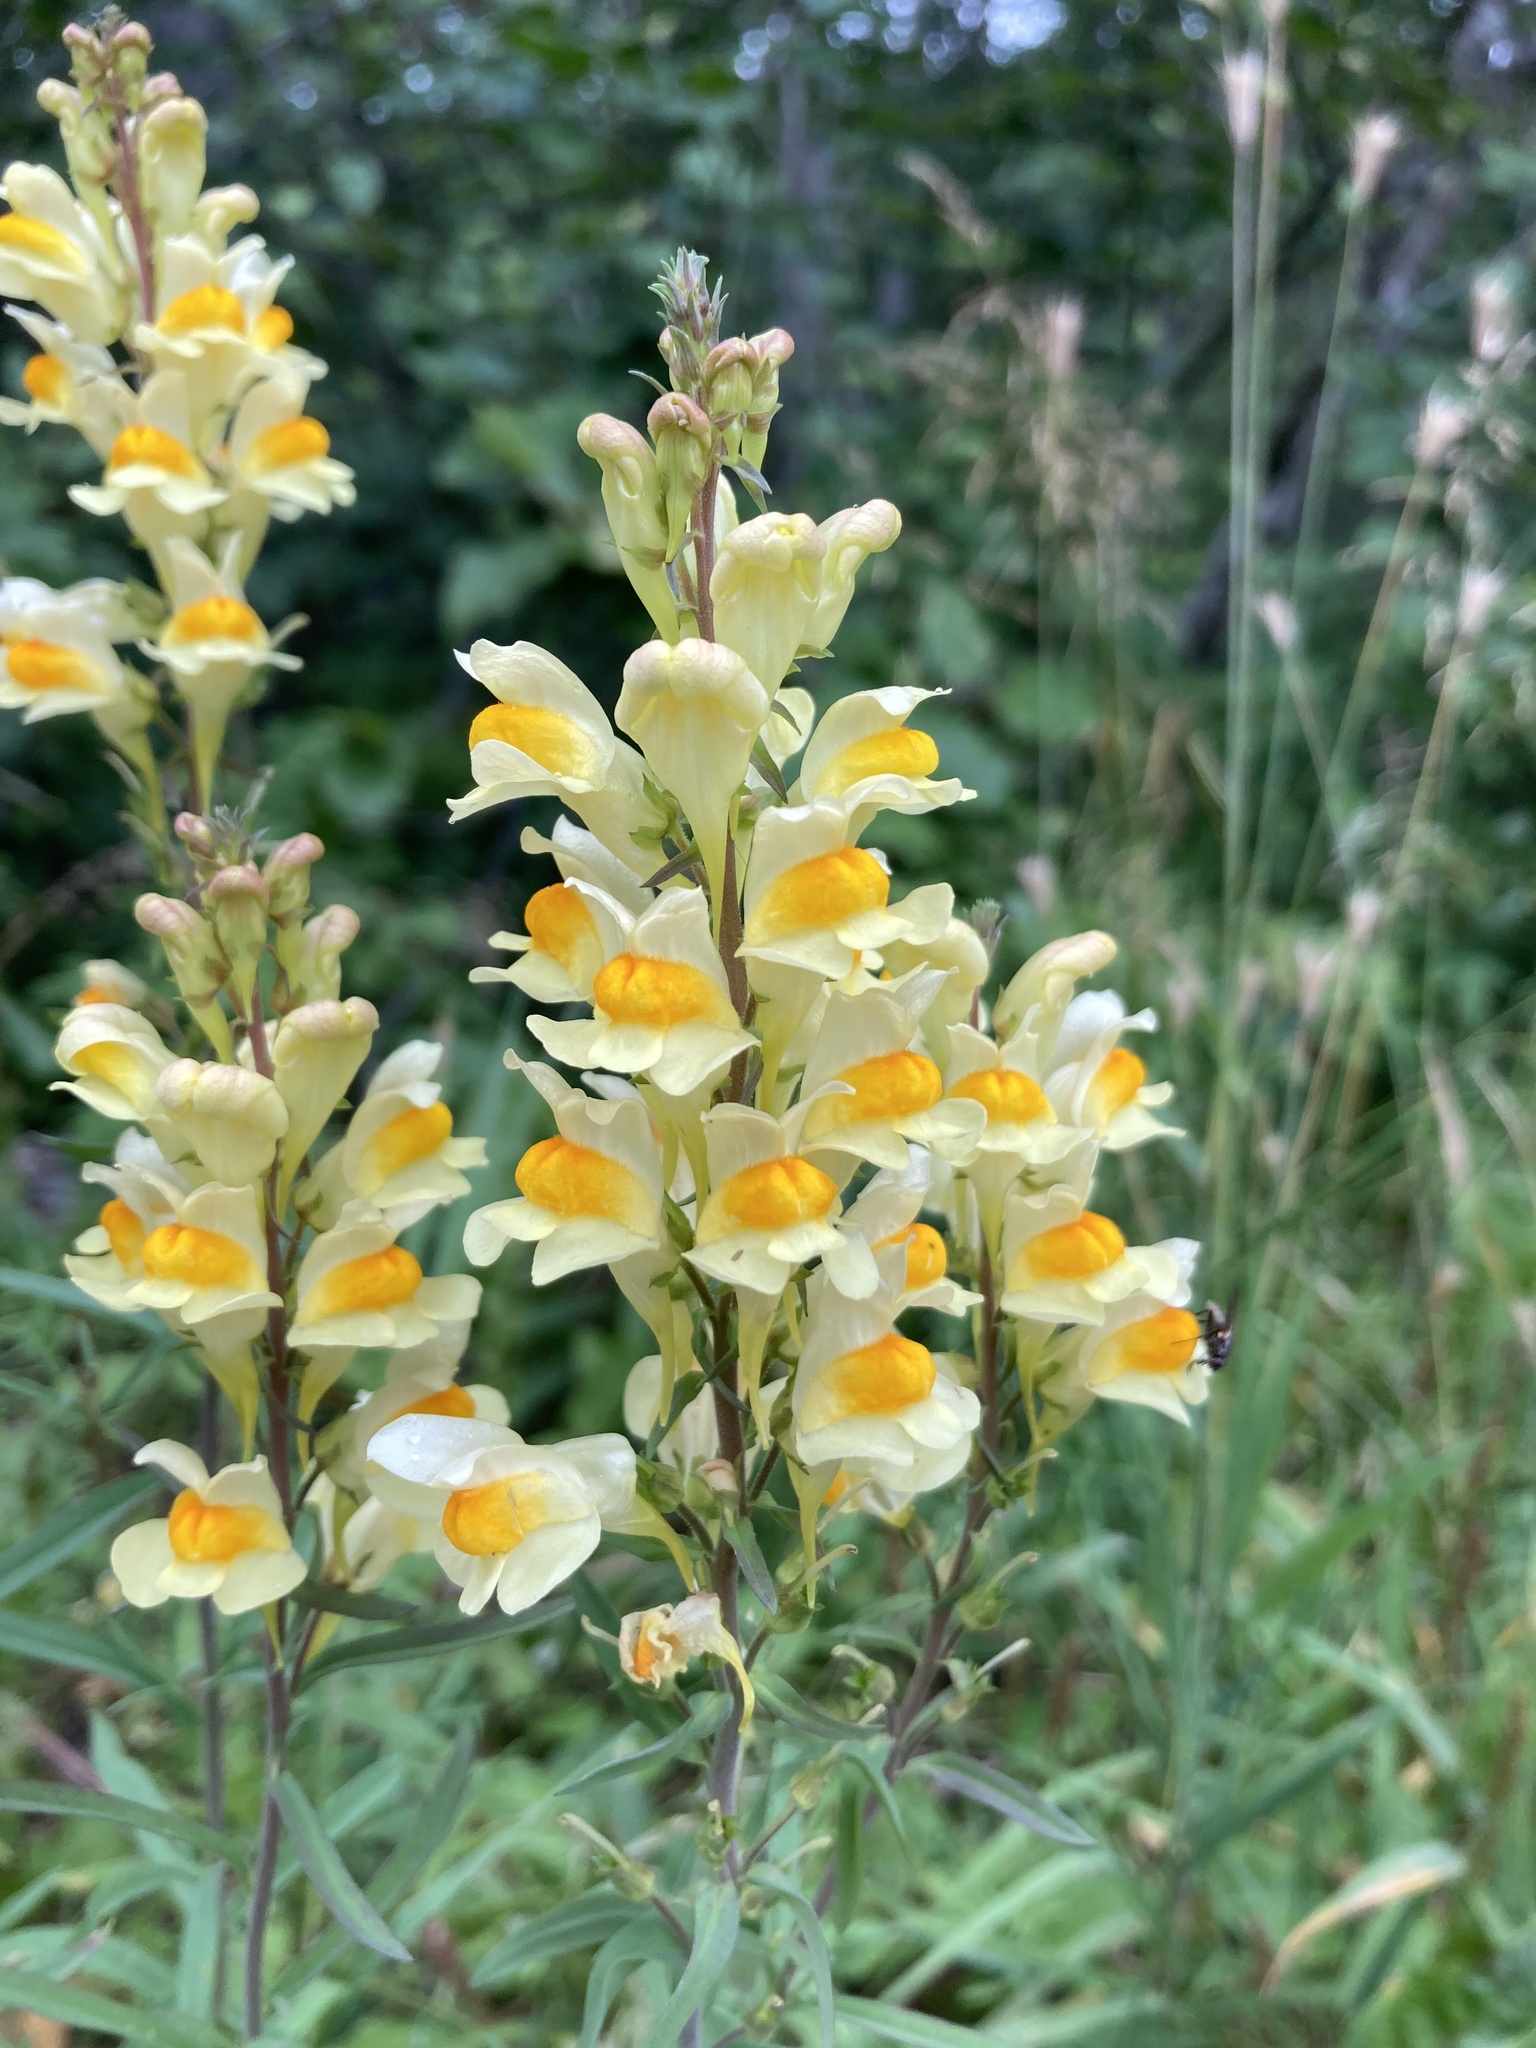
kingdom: Plantae
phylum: Tracheophyta
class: Magnoliopsida
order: Lamiales
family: Plantaginaceae
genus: Linaria
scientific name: Linaria vulgaris
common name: Butter and eggs
